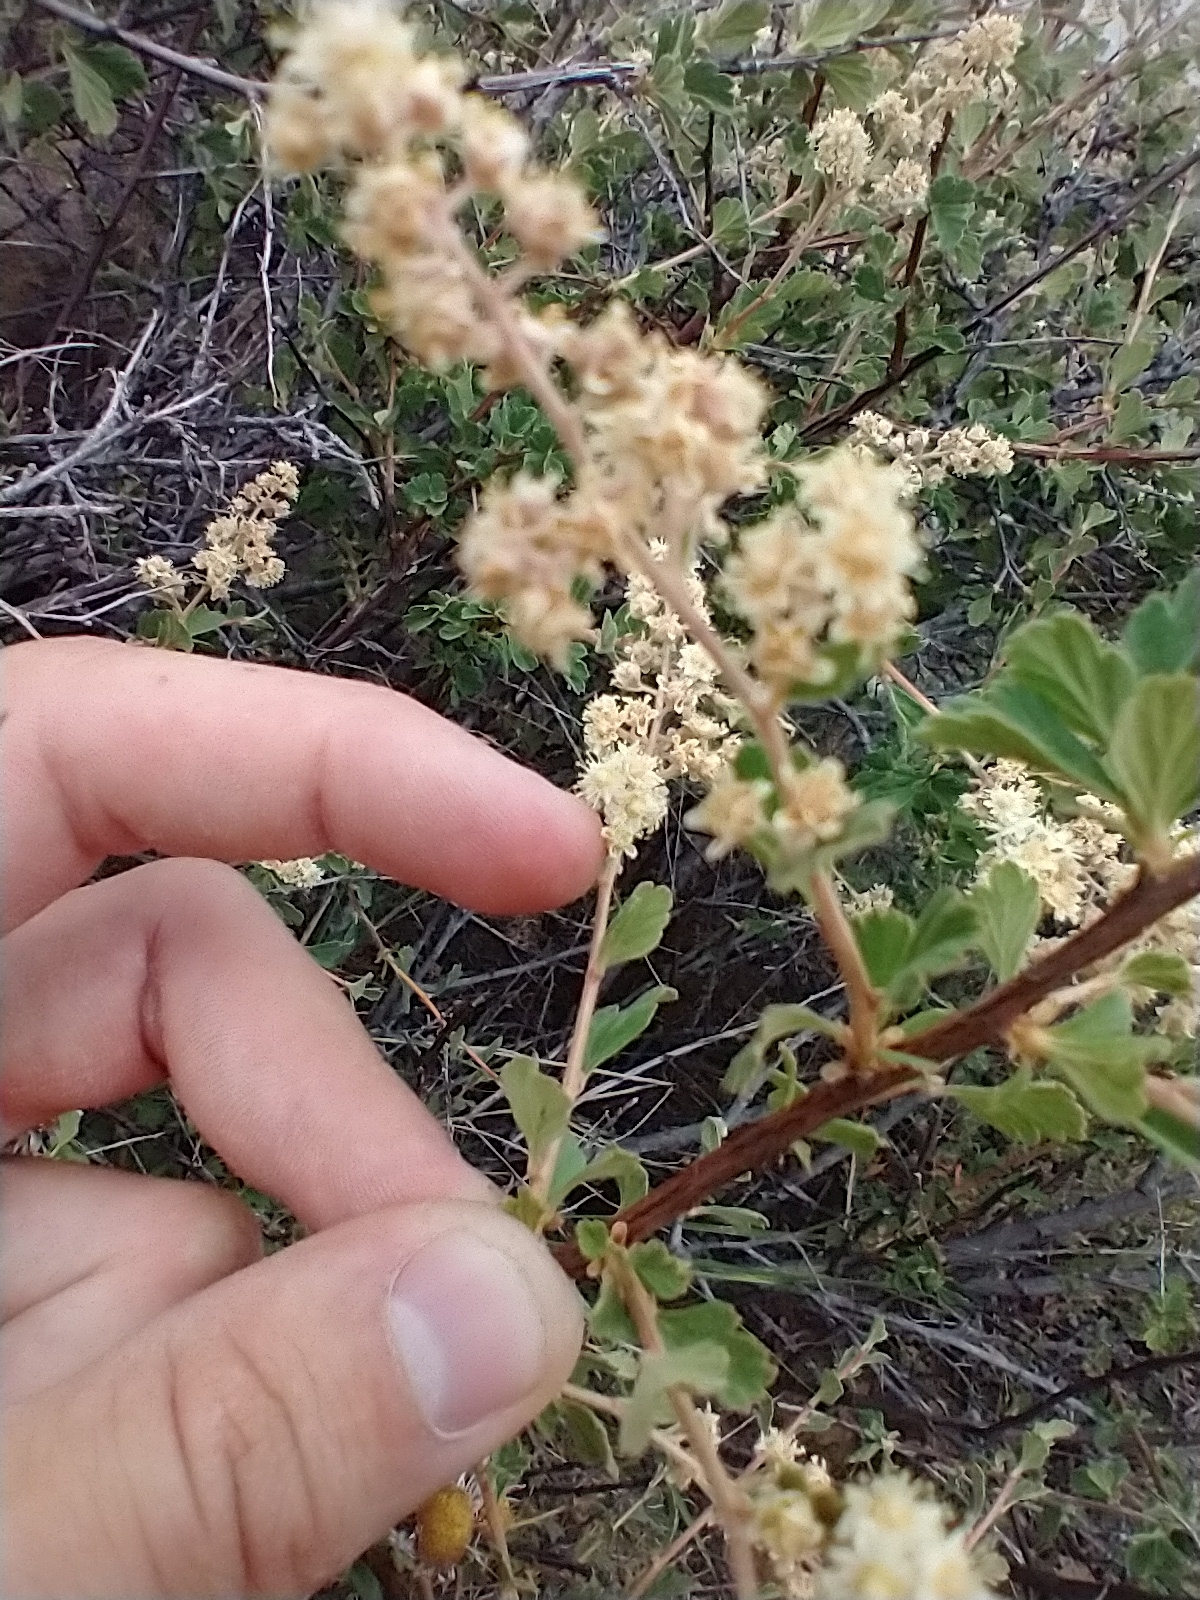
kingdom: Plantae
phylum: Tracheophyta
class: Magnoliopsida
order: Rosales
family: Rosaceae
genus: Holodiscus
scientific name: Holodiscus discolor
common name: Oceanspray
